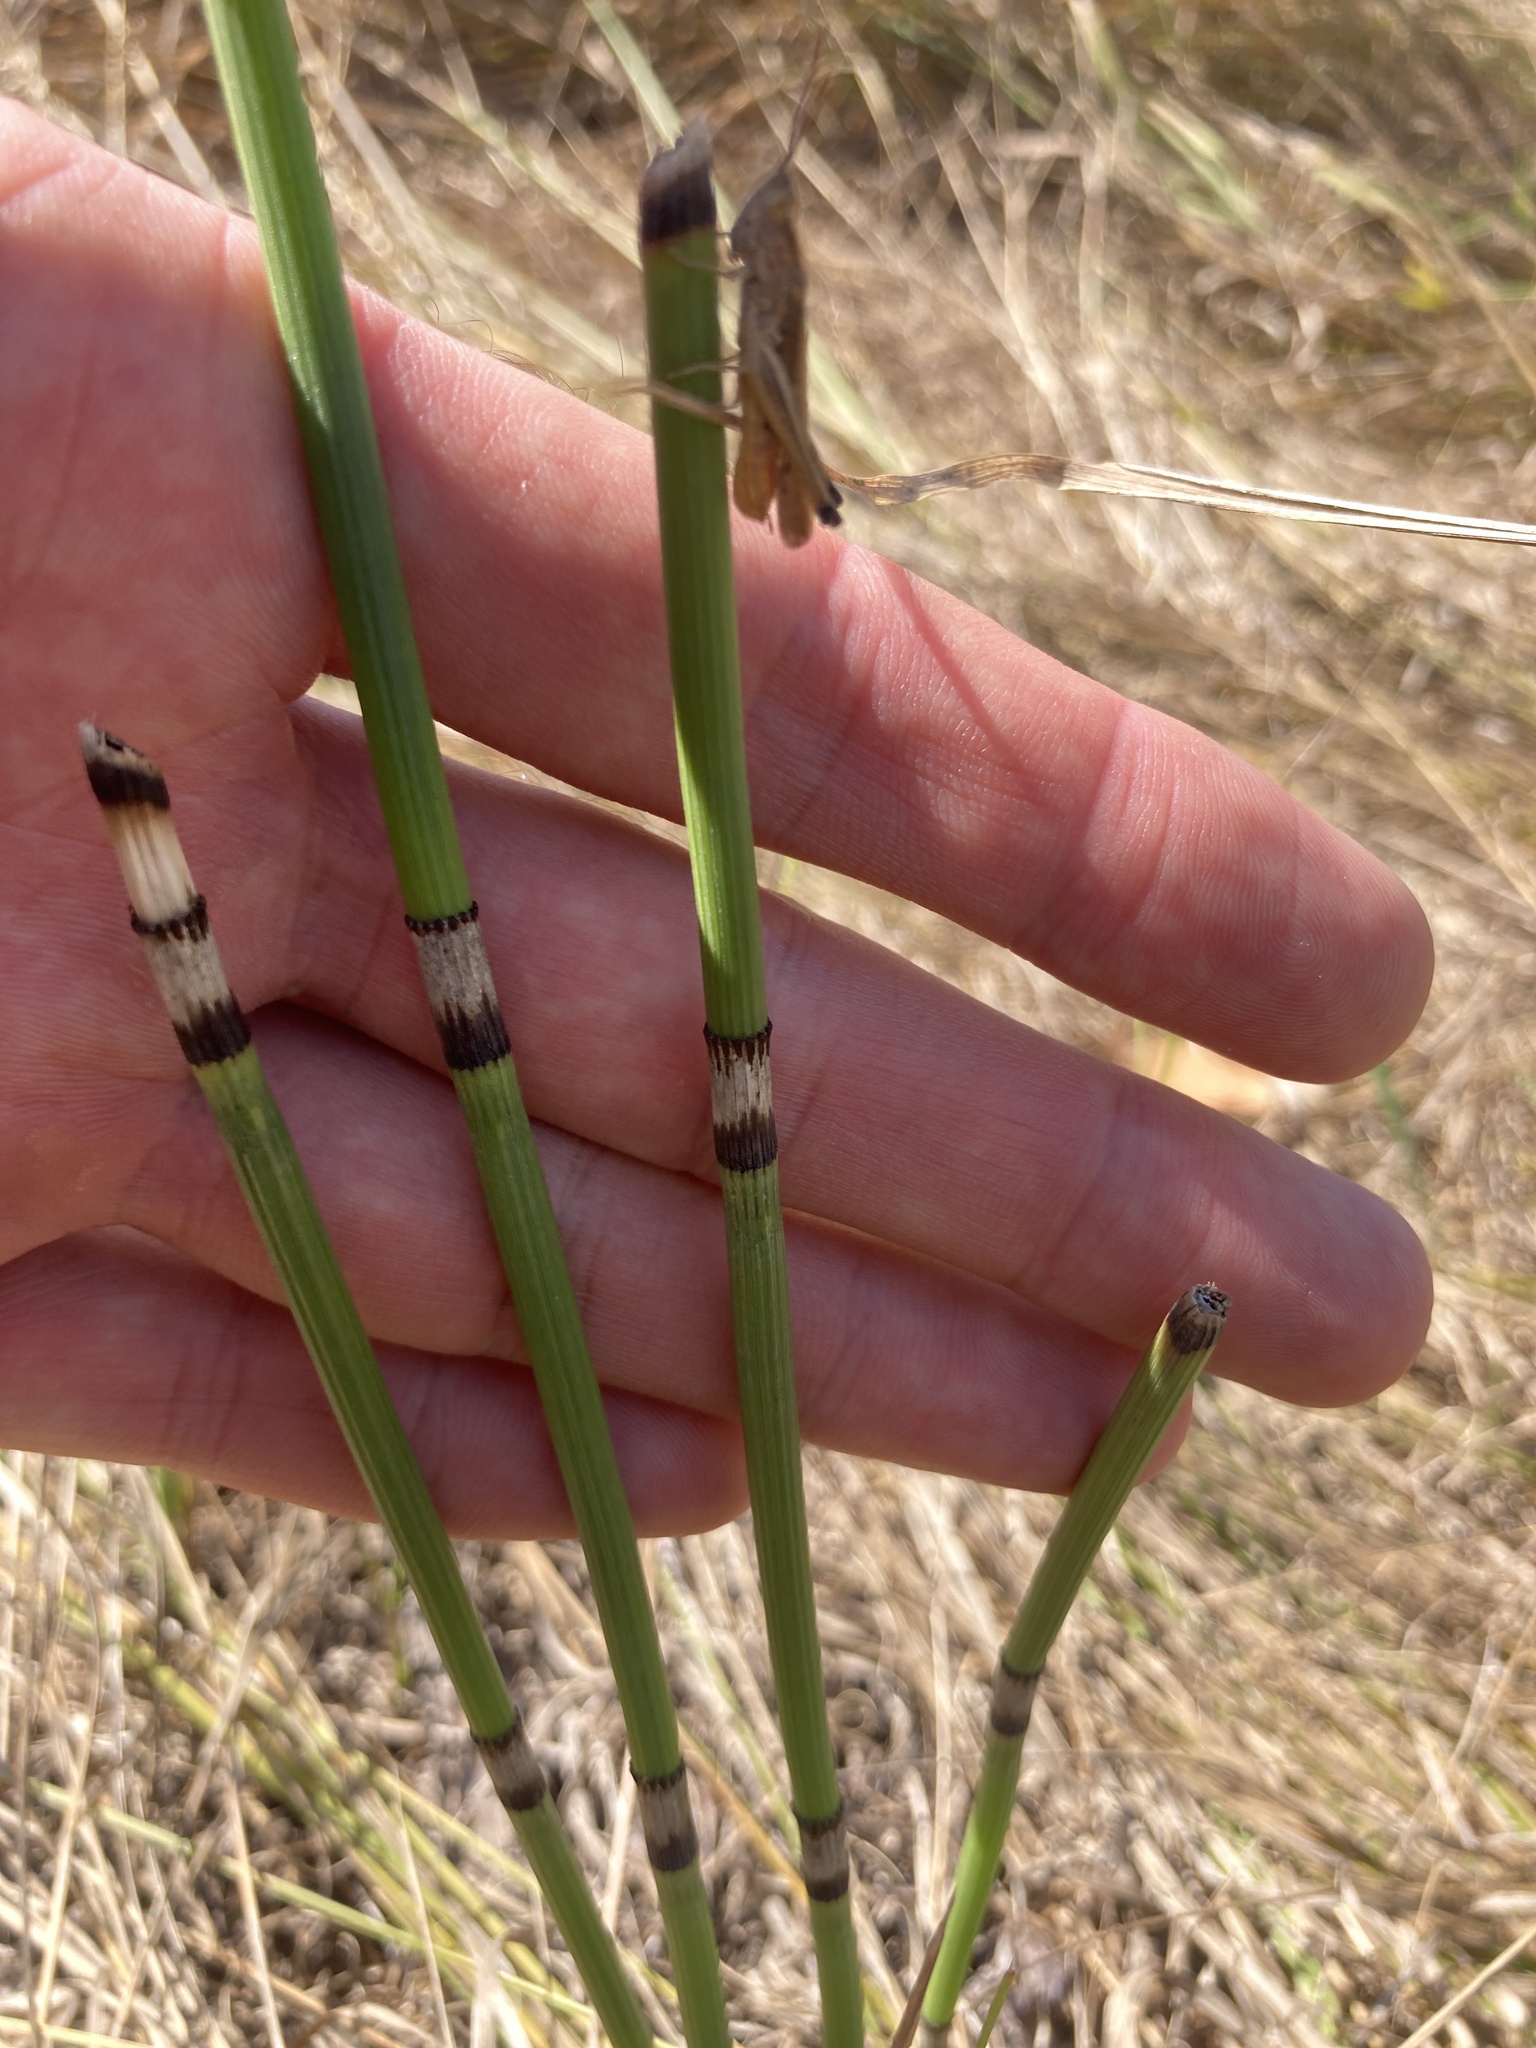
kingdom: Plantae
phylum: Tracheophyta
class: Polypodiopsida
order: Equisetales
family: Equisetaceae
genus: Equisetum
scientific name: Equisetum hyemale
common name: Rough horsetail
